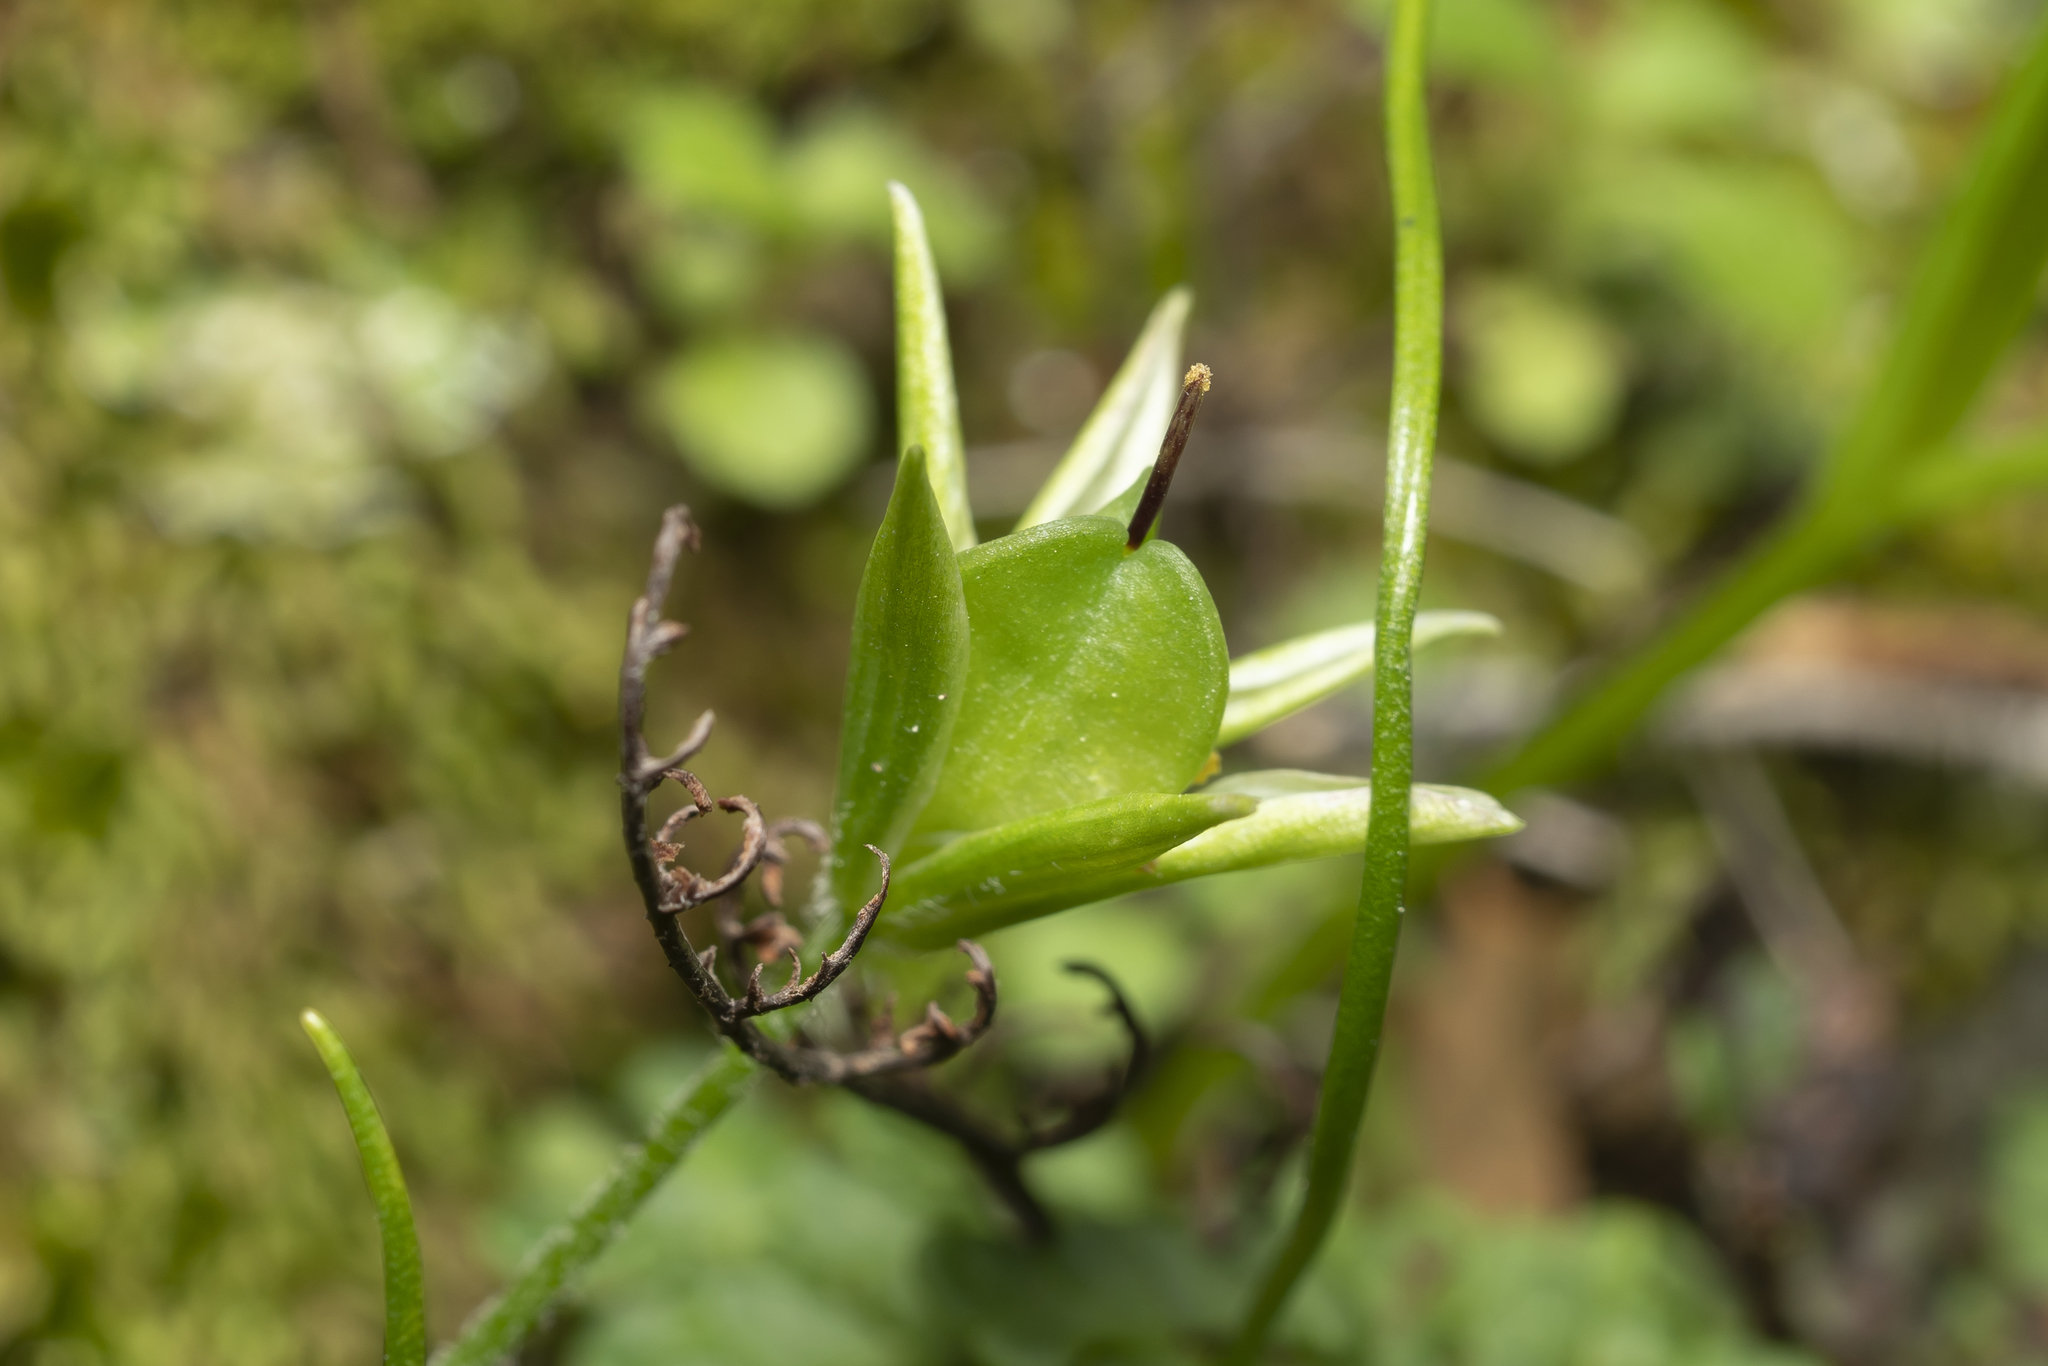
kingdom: Plantae
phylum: Tracheophyta
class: Liliopsida
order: Liliales
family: Liliaceae
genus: Gagea
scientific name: Gagea
